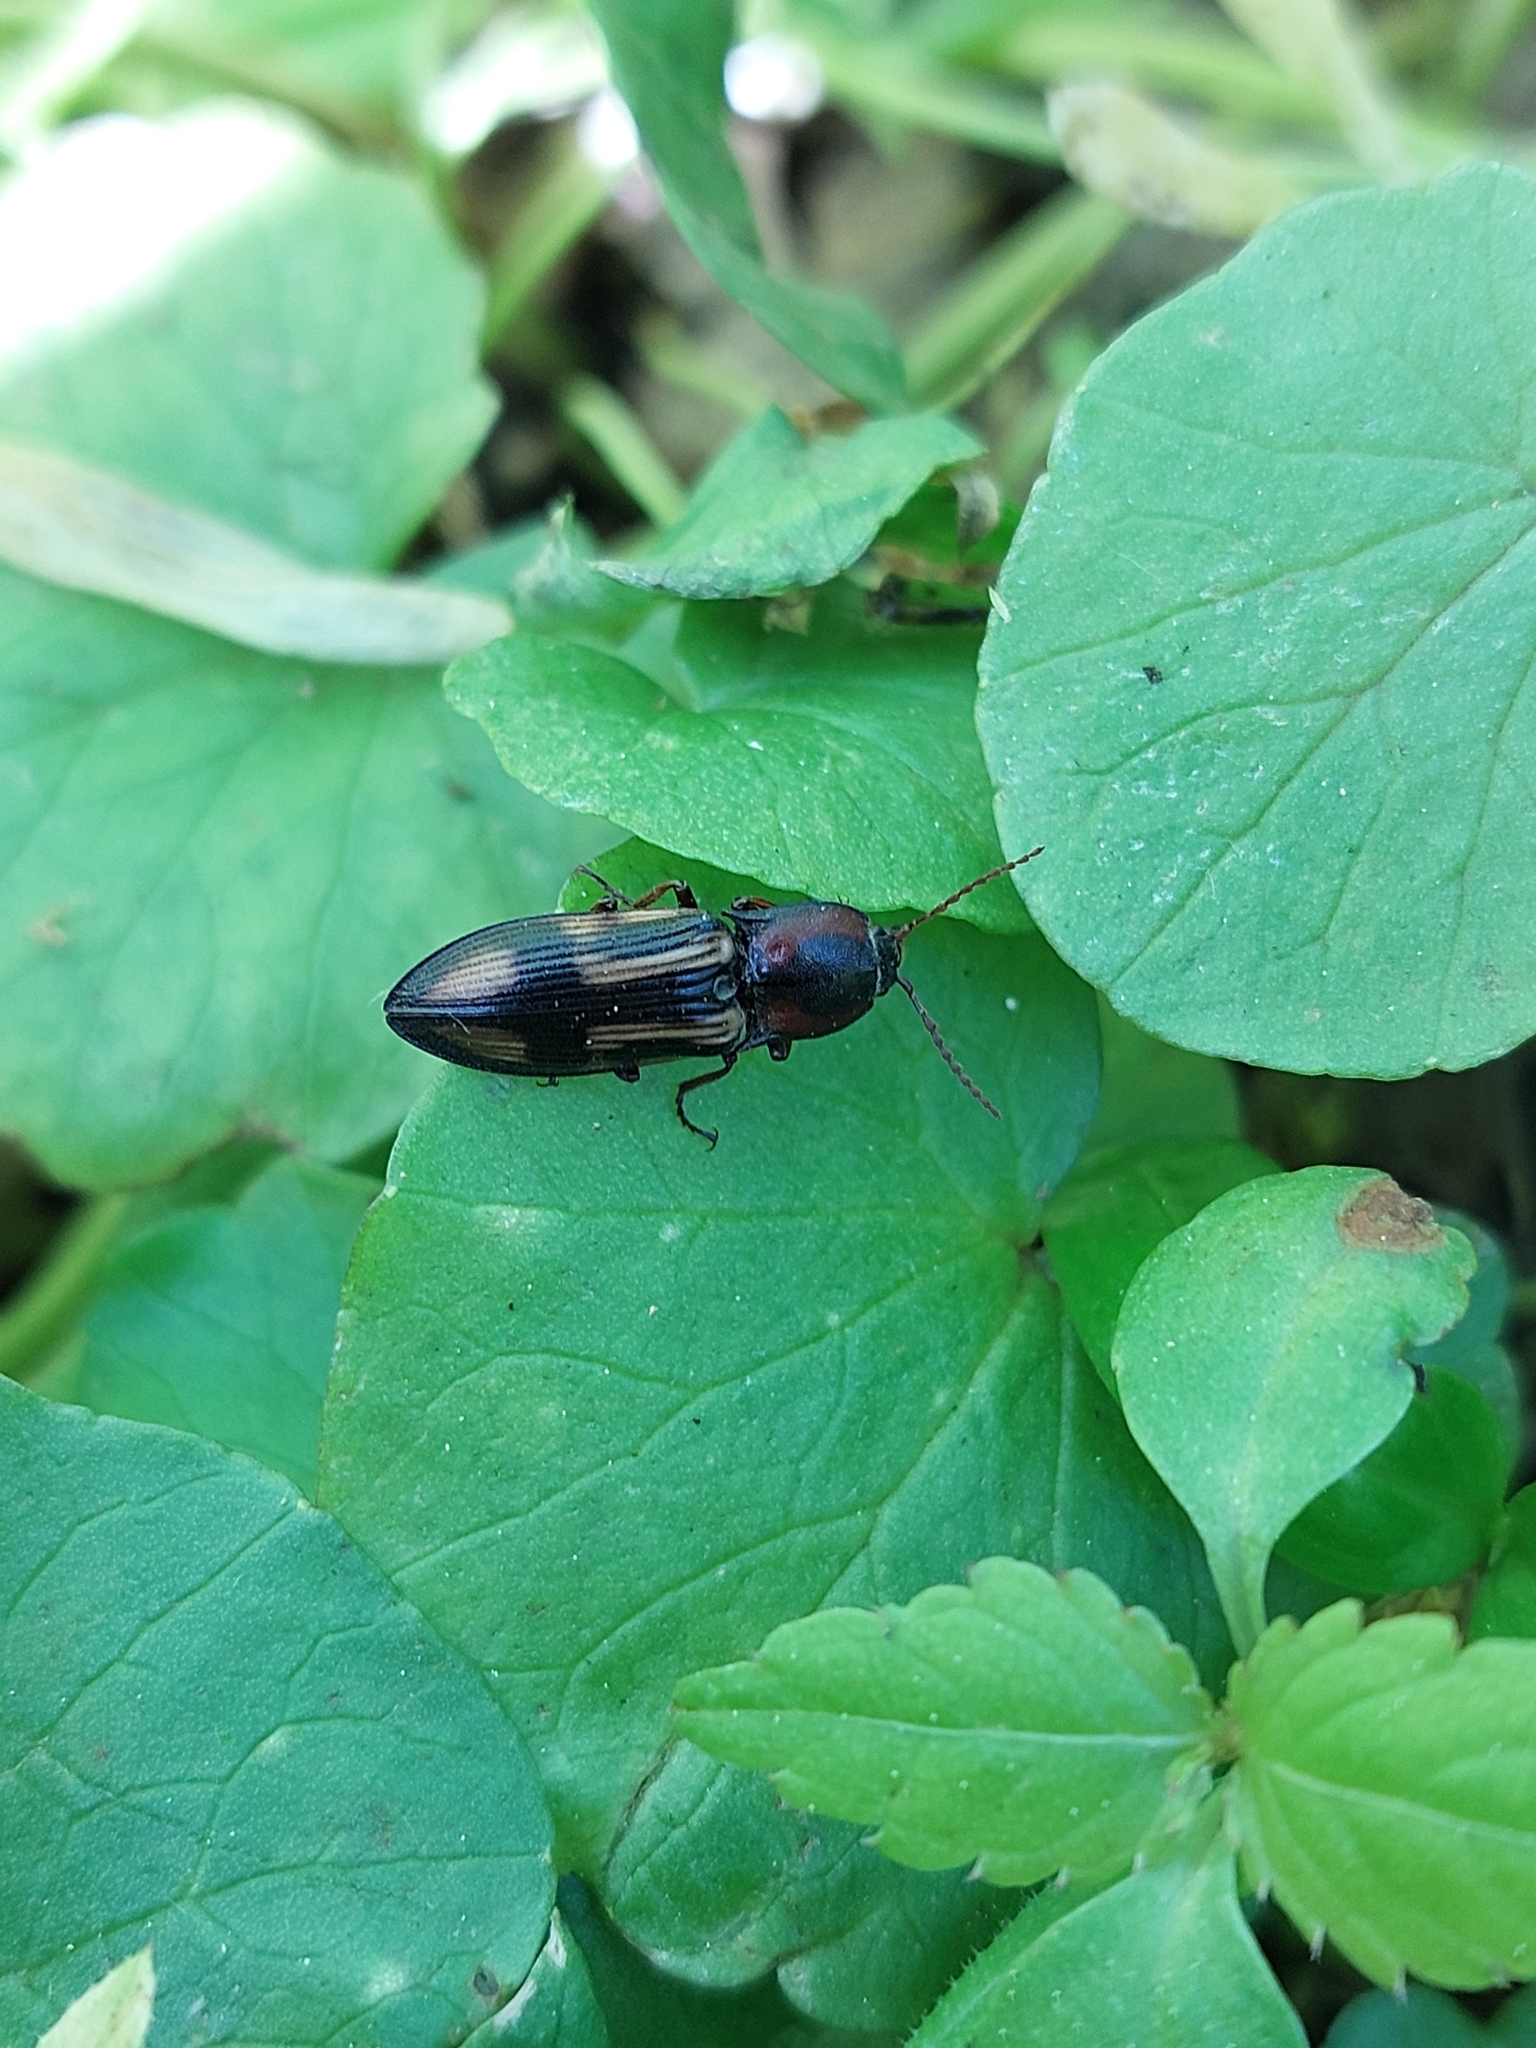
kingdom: Animalia
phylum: Arthropoda
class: Insecta
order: Coleoptera
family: Elateridae
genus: Selatosomus
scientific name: Selatosomus cruciatus
